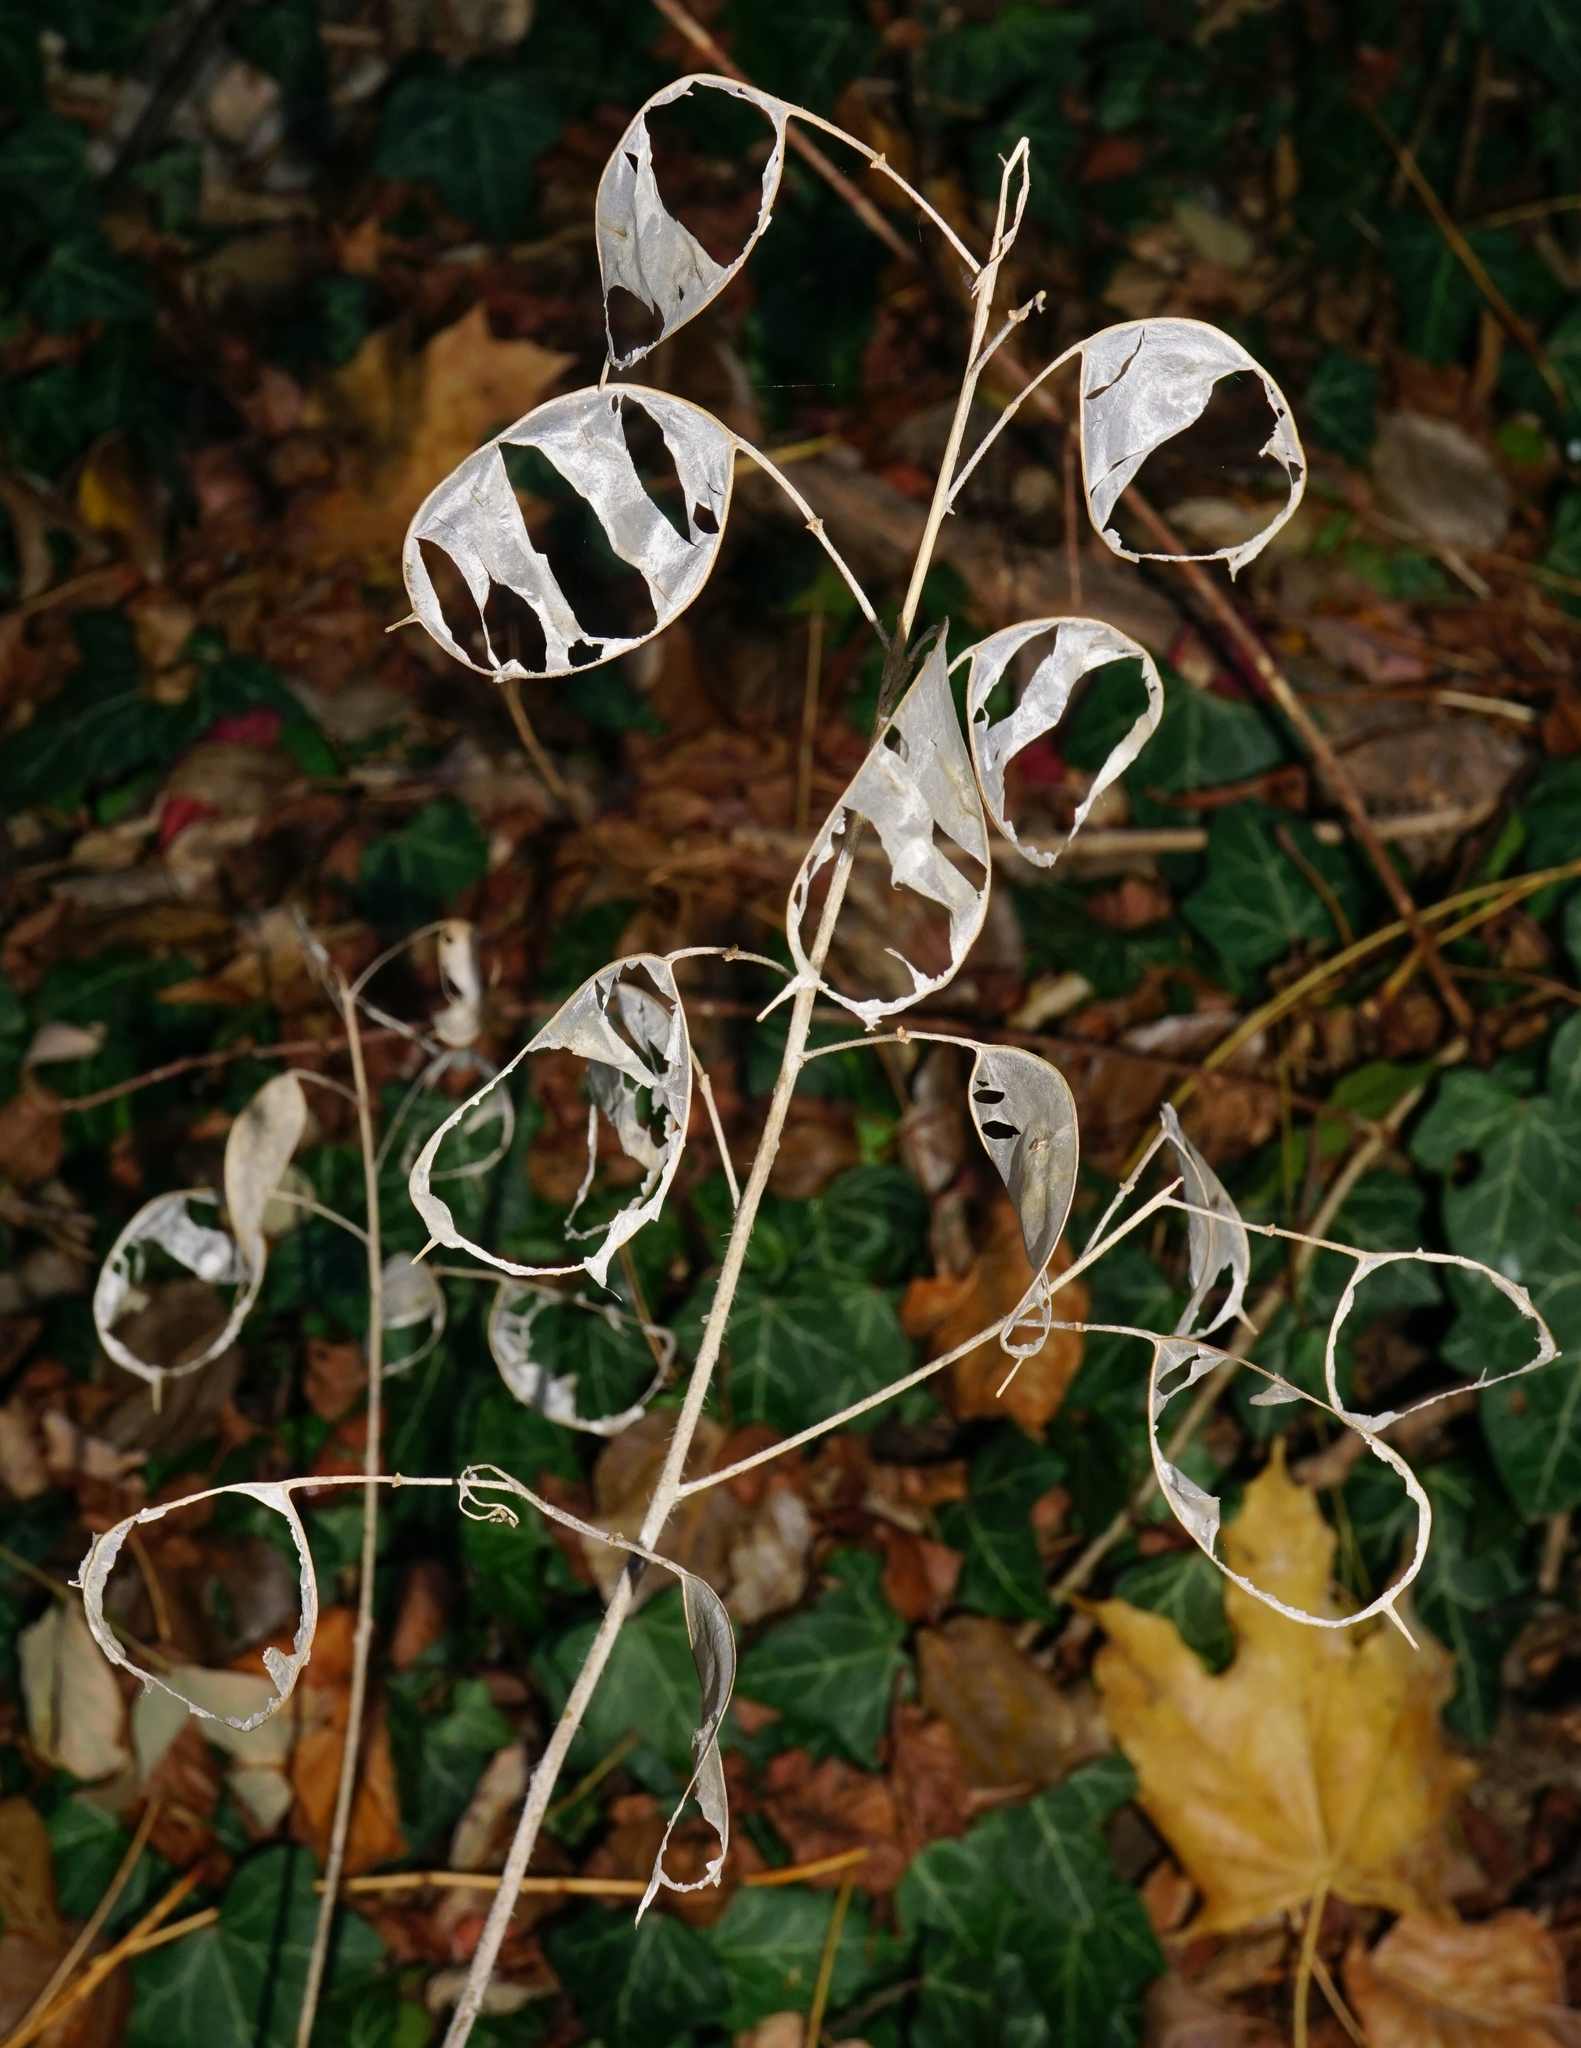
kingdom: Plantae
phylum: Tracheophyta
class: Magnoliopsida
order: Brassicales
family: Brassicaceae
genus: Lunaria
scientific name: Lunaria annua
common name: Honesty
